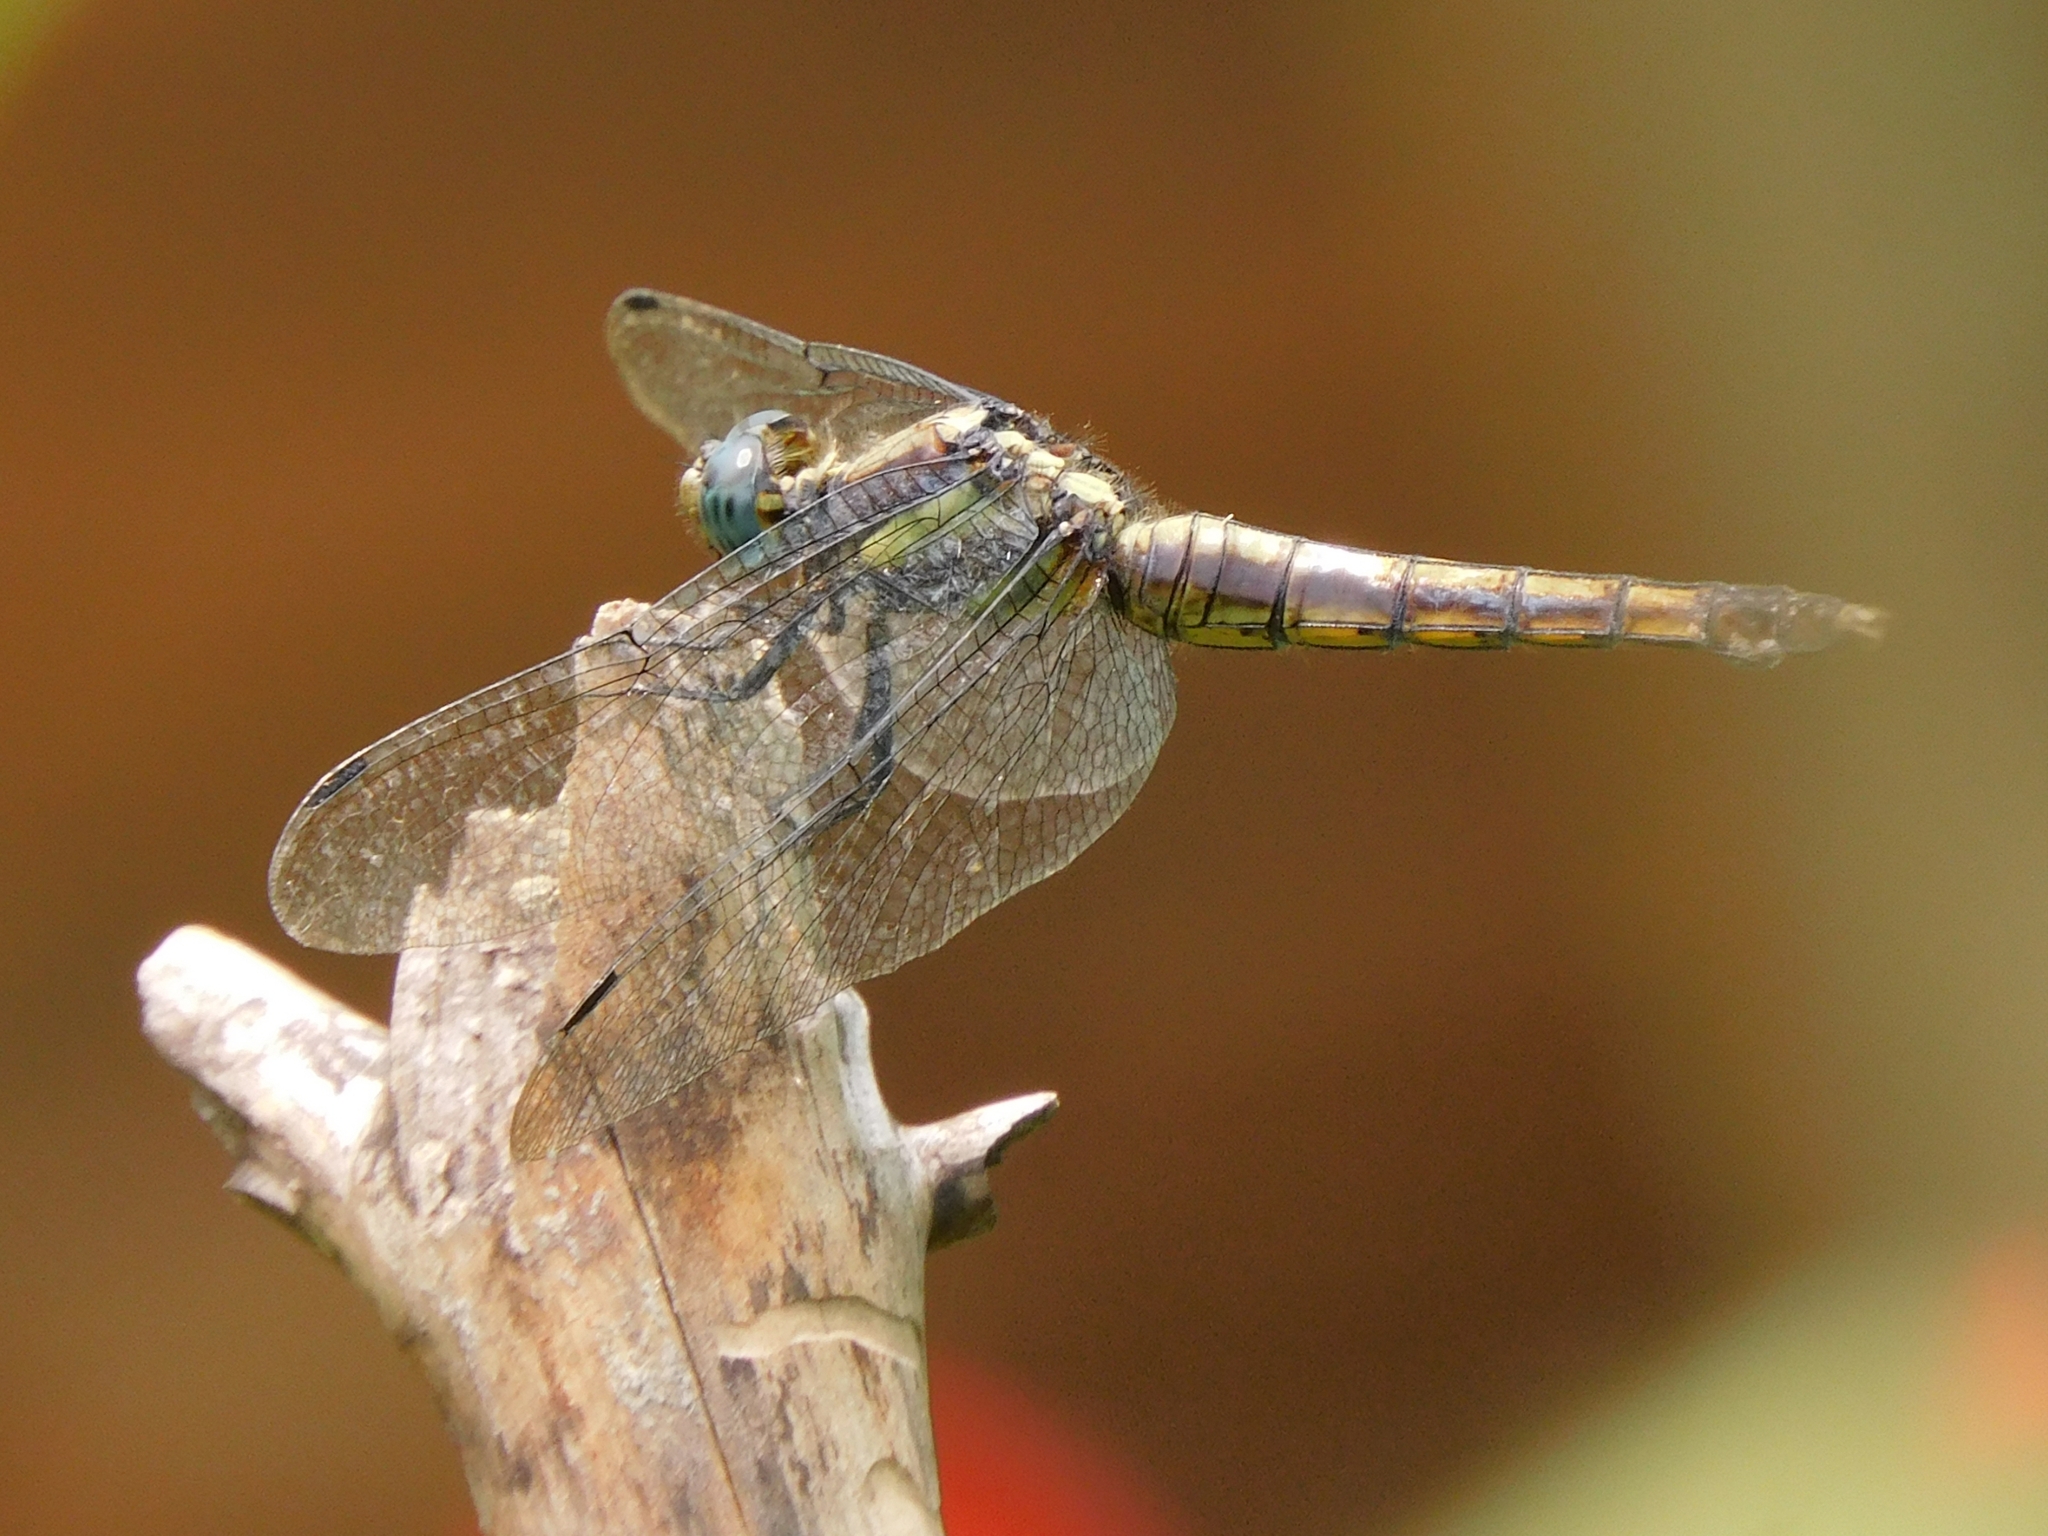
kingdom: Animalia
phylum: Arthropoda
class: Insecta
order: Odonata
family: Libellulidae
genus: Orthetrum
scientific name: Orthetrum internum
